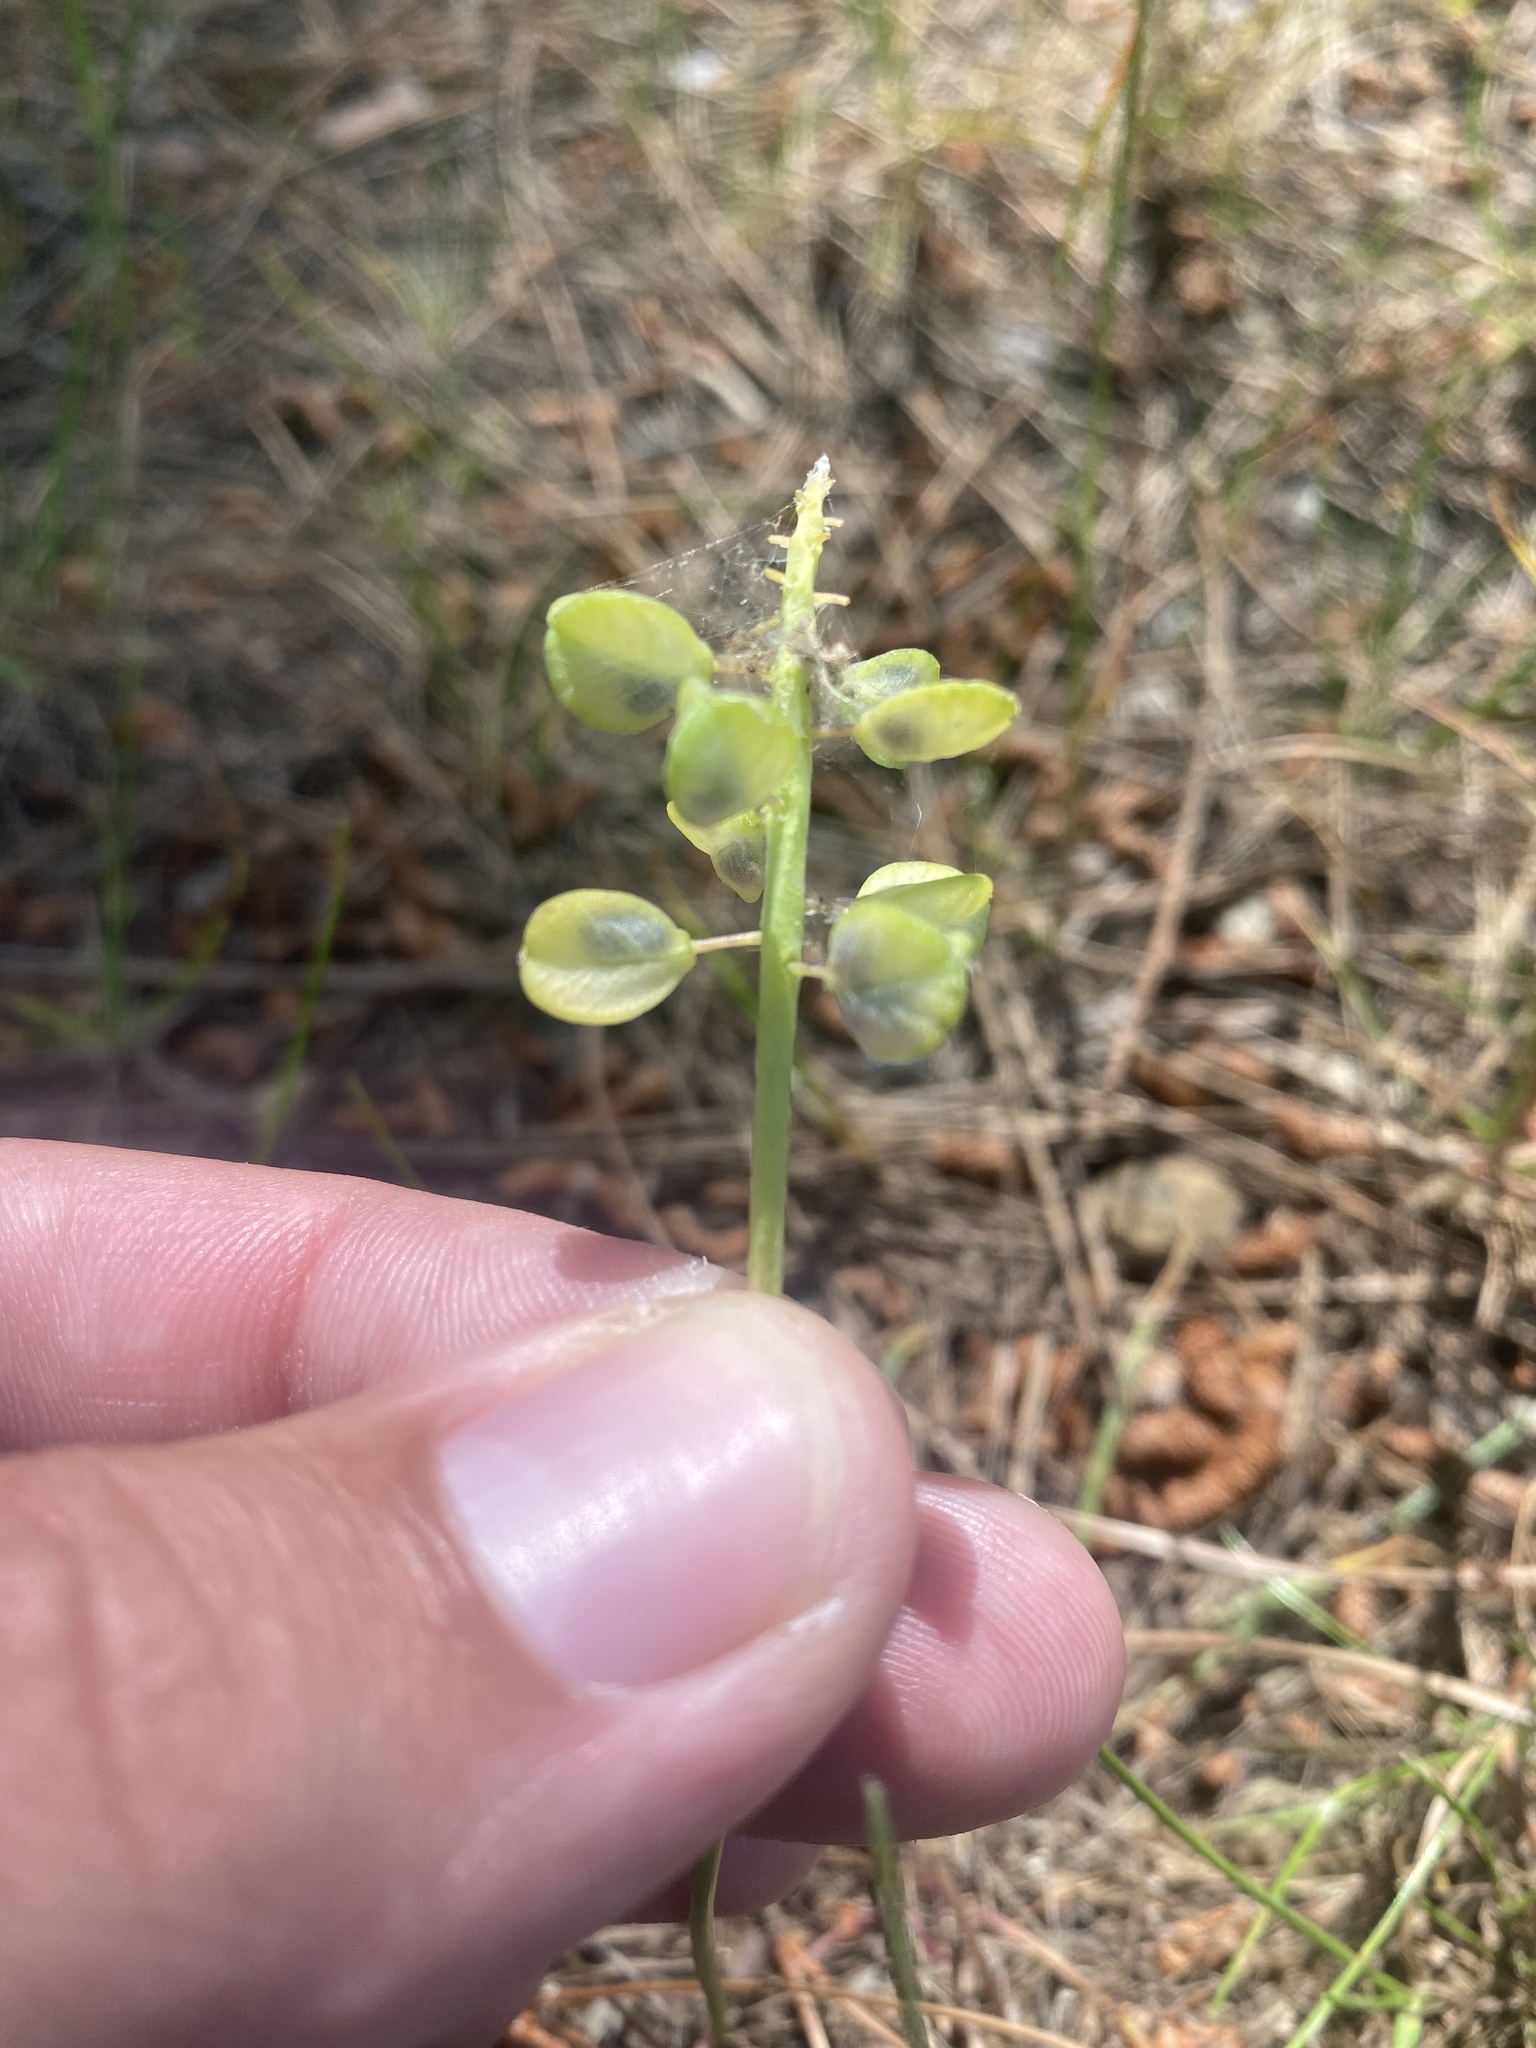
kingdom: Plantae
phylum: Tracheophyta
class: Liliopsida
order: Asparagales
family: Asparagaceae
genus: Muscari
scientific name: Muscari neglectum
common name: Grape-hyacinth
